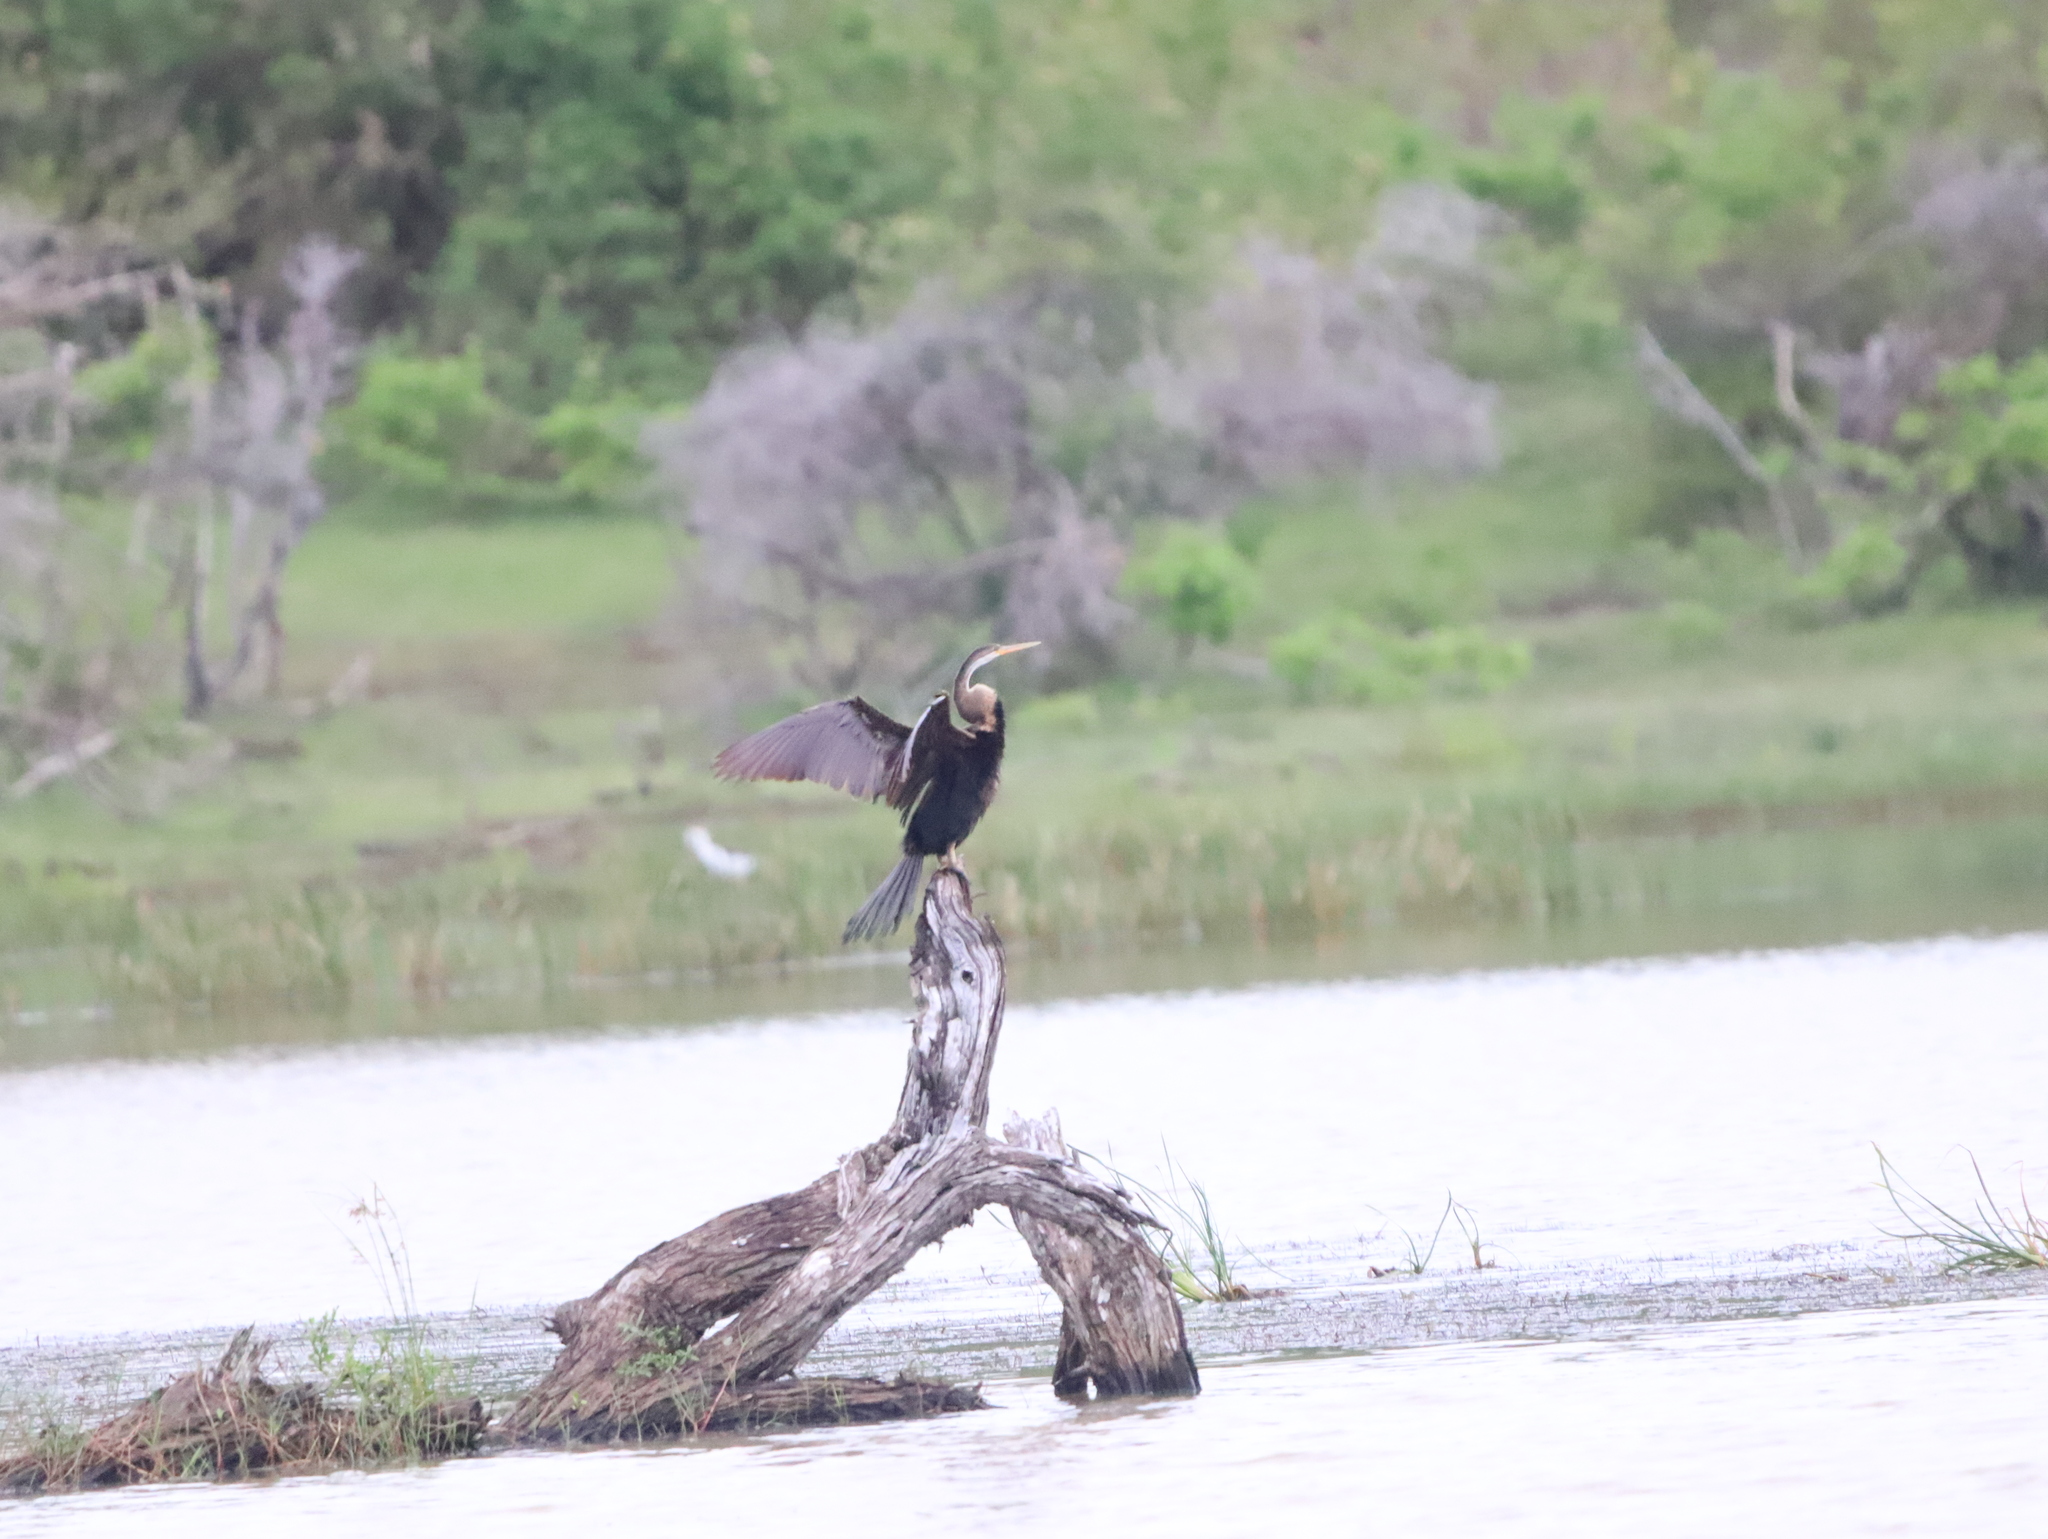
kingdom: Animalia
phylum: Chordata
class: Aves
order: Suliformes
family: Anhingidae
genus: Anhinga
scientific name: Anhinga melanogaster
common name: Oriental darter
